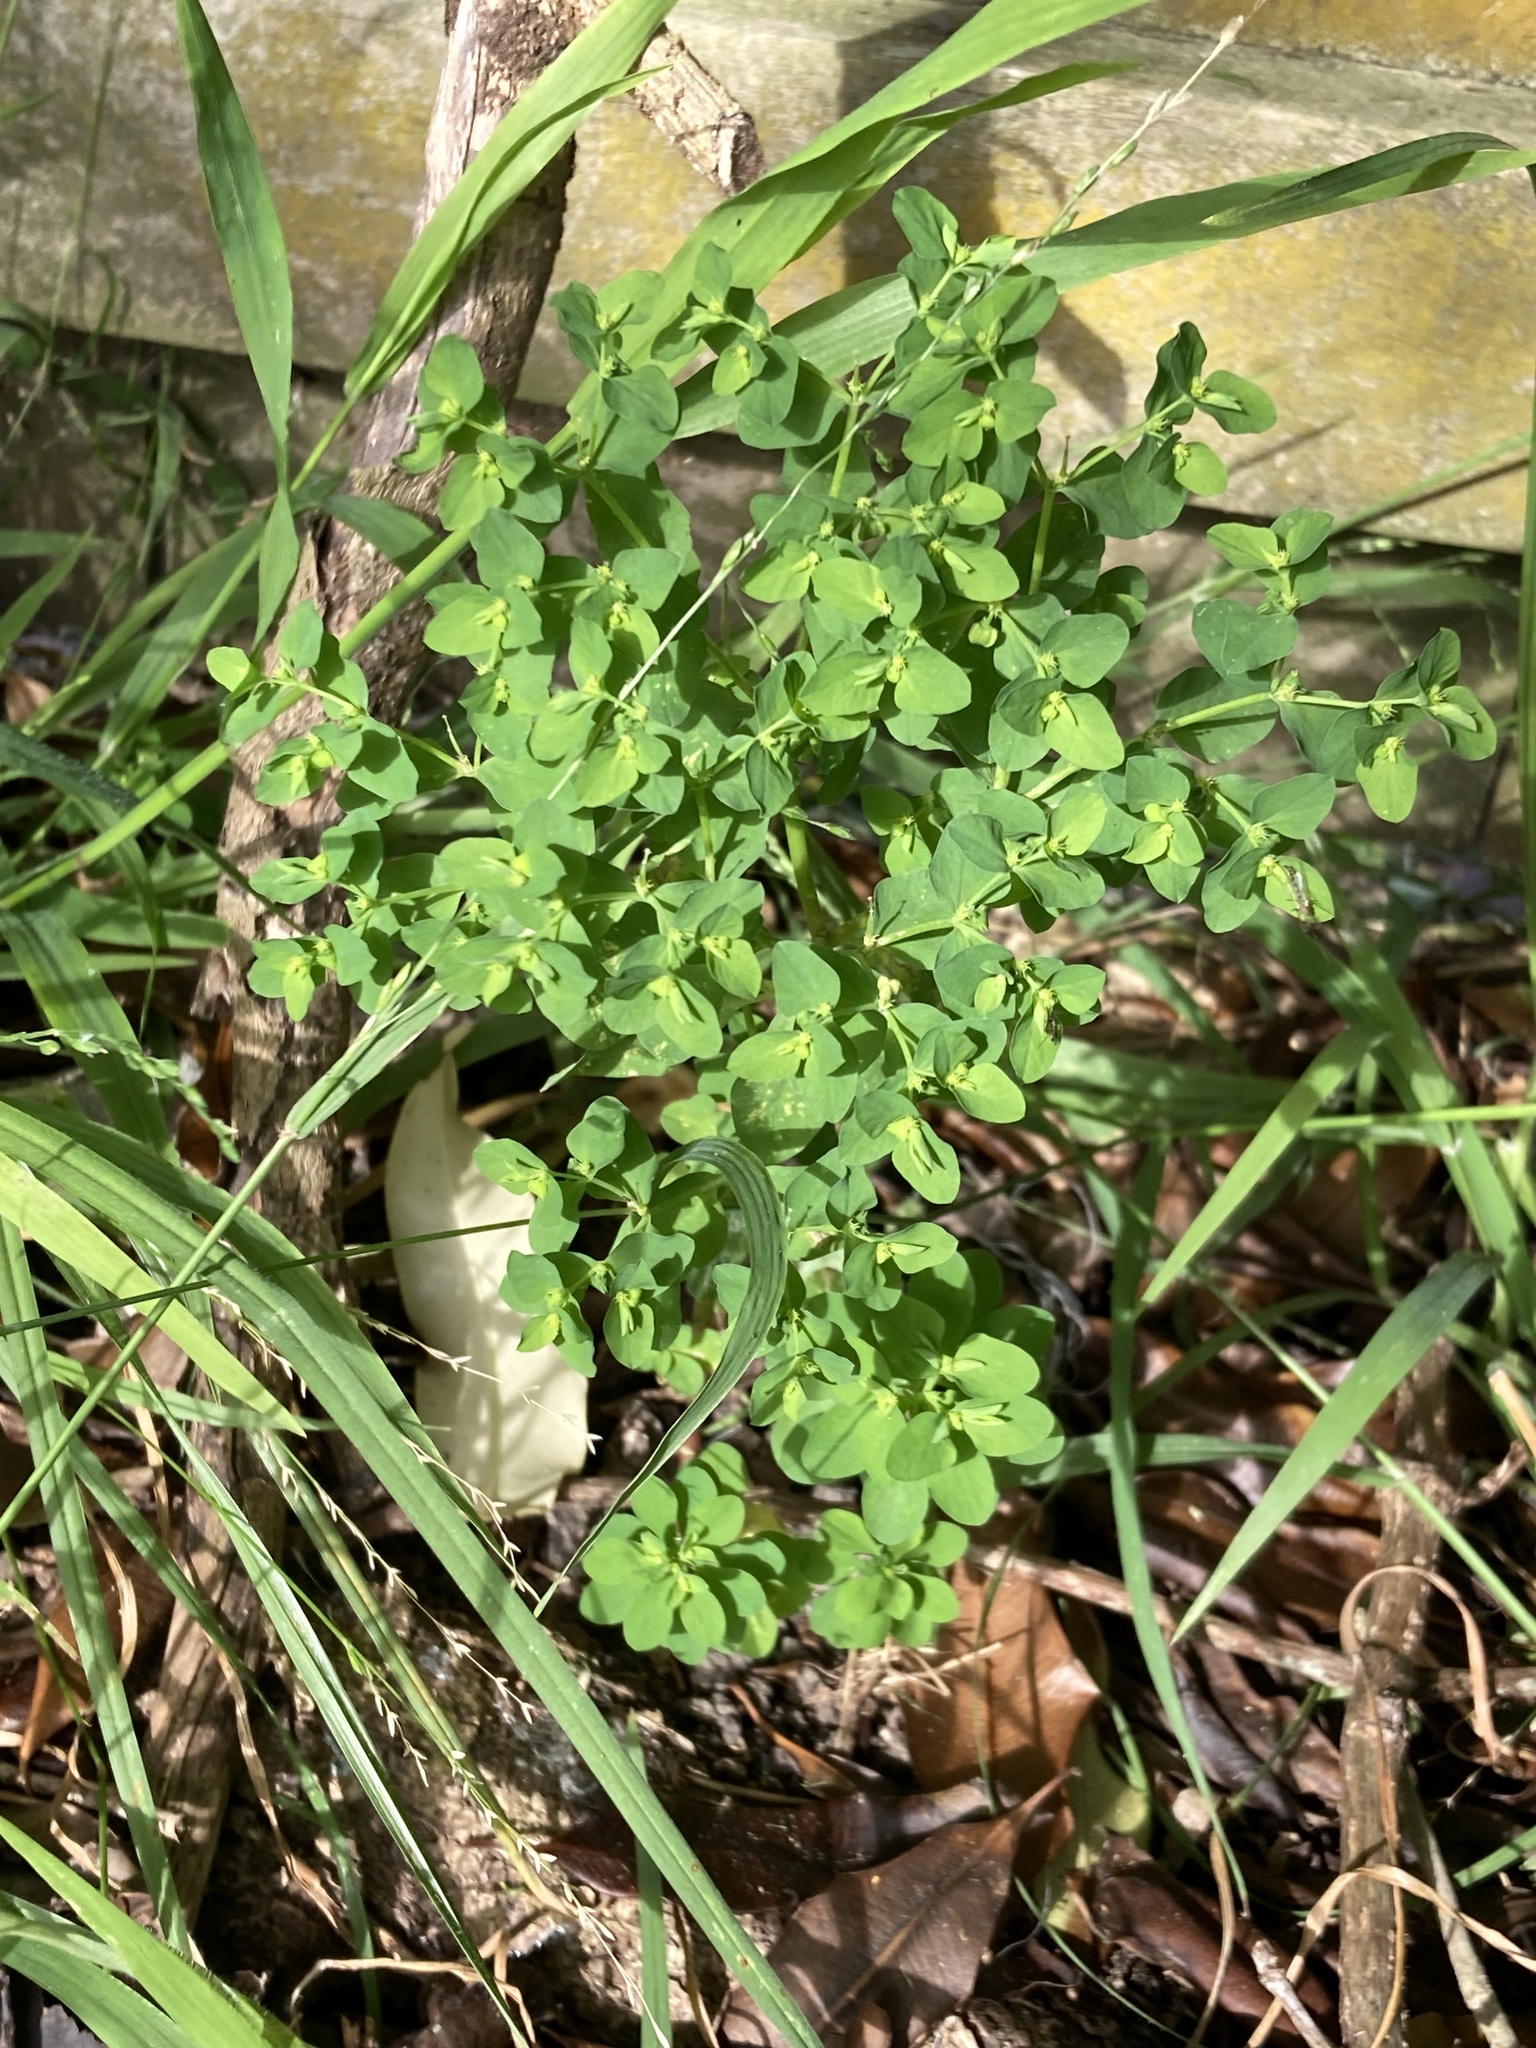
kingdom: Plantae
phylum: Tracheophyta
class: Magnoliopsida
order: Malpighiales
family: Euphorbiaceae
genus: Euphorbia
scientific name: Euphorbia peplus
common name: Petty spurge
